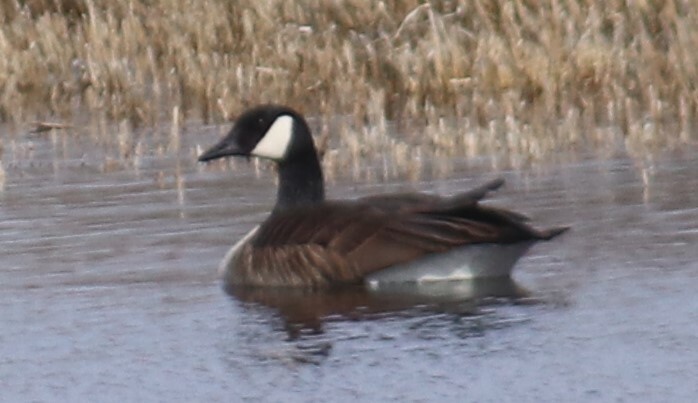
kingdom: Animalia
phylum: Chordata
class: Aves
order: Anseriformes
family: Anatidae
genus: Branta
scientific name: Branta canadensis
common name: Canada goose
